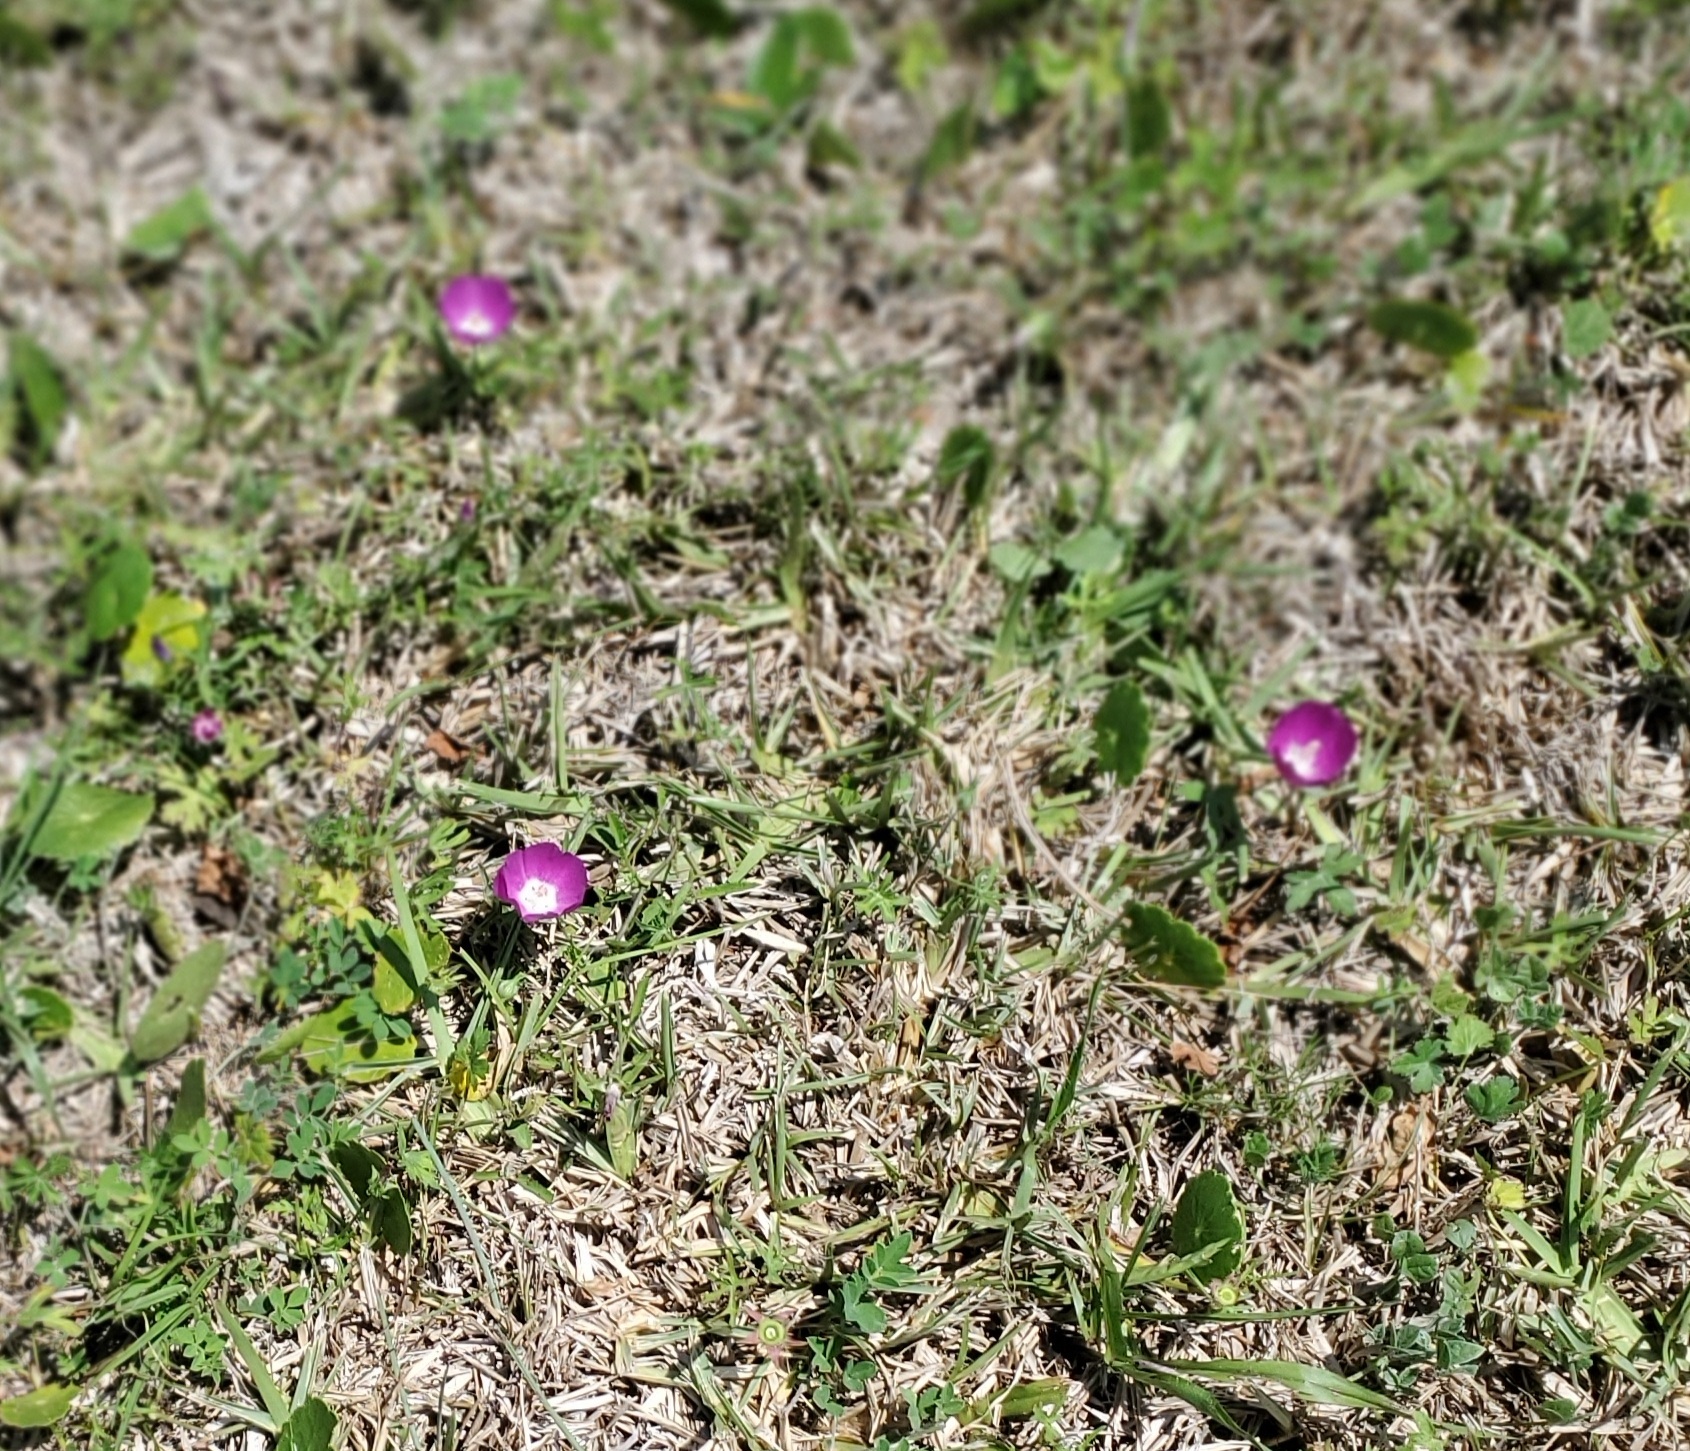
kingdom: Plantae
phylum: Tracheophyta
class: Magnoliopsida
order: Malvales
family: Malvaceae
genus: Callirhoe
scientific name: Callirhoe involucrata
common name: Purple poppy-mallow
